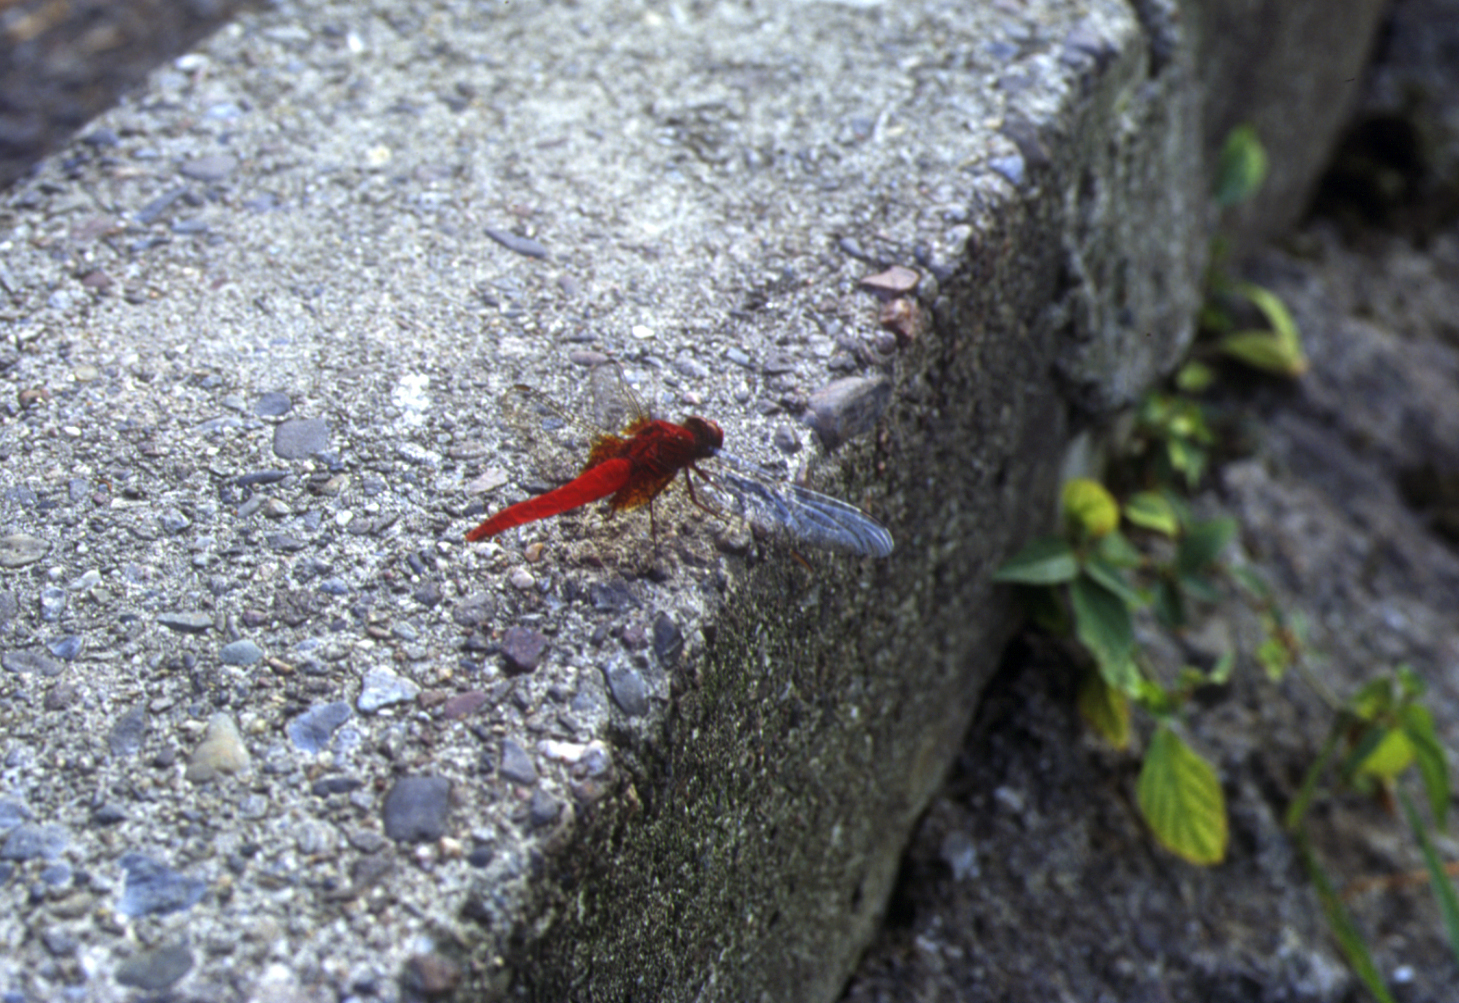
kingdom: Animalia
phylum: Arthropoda
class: Insecta
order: Odonata
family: Libellulidae
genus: Crocothemis
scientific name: Crocothemis servilia
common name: Scarlet skimmer
